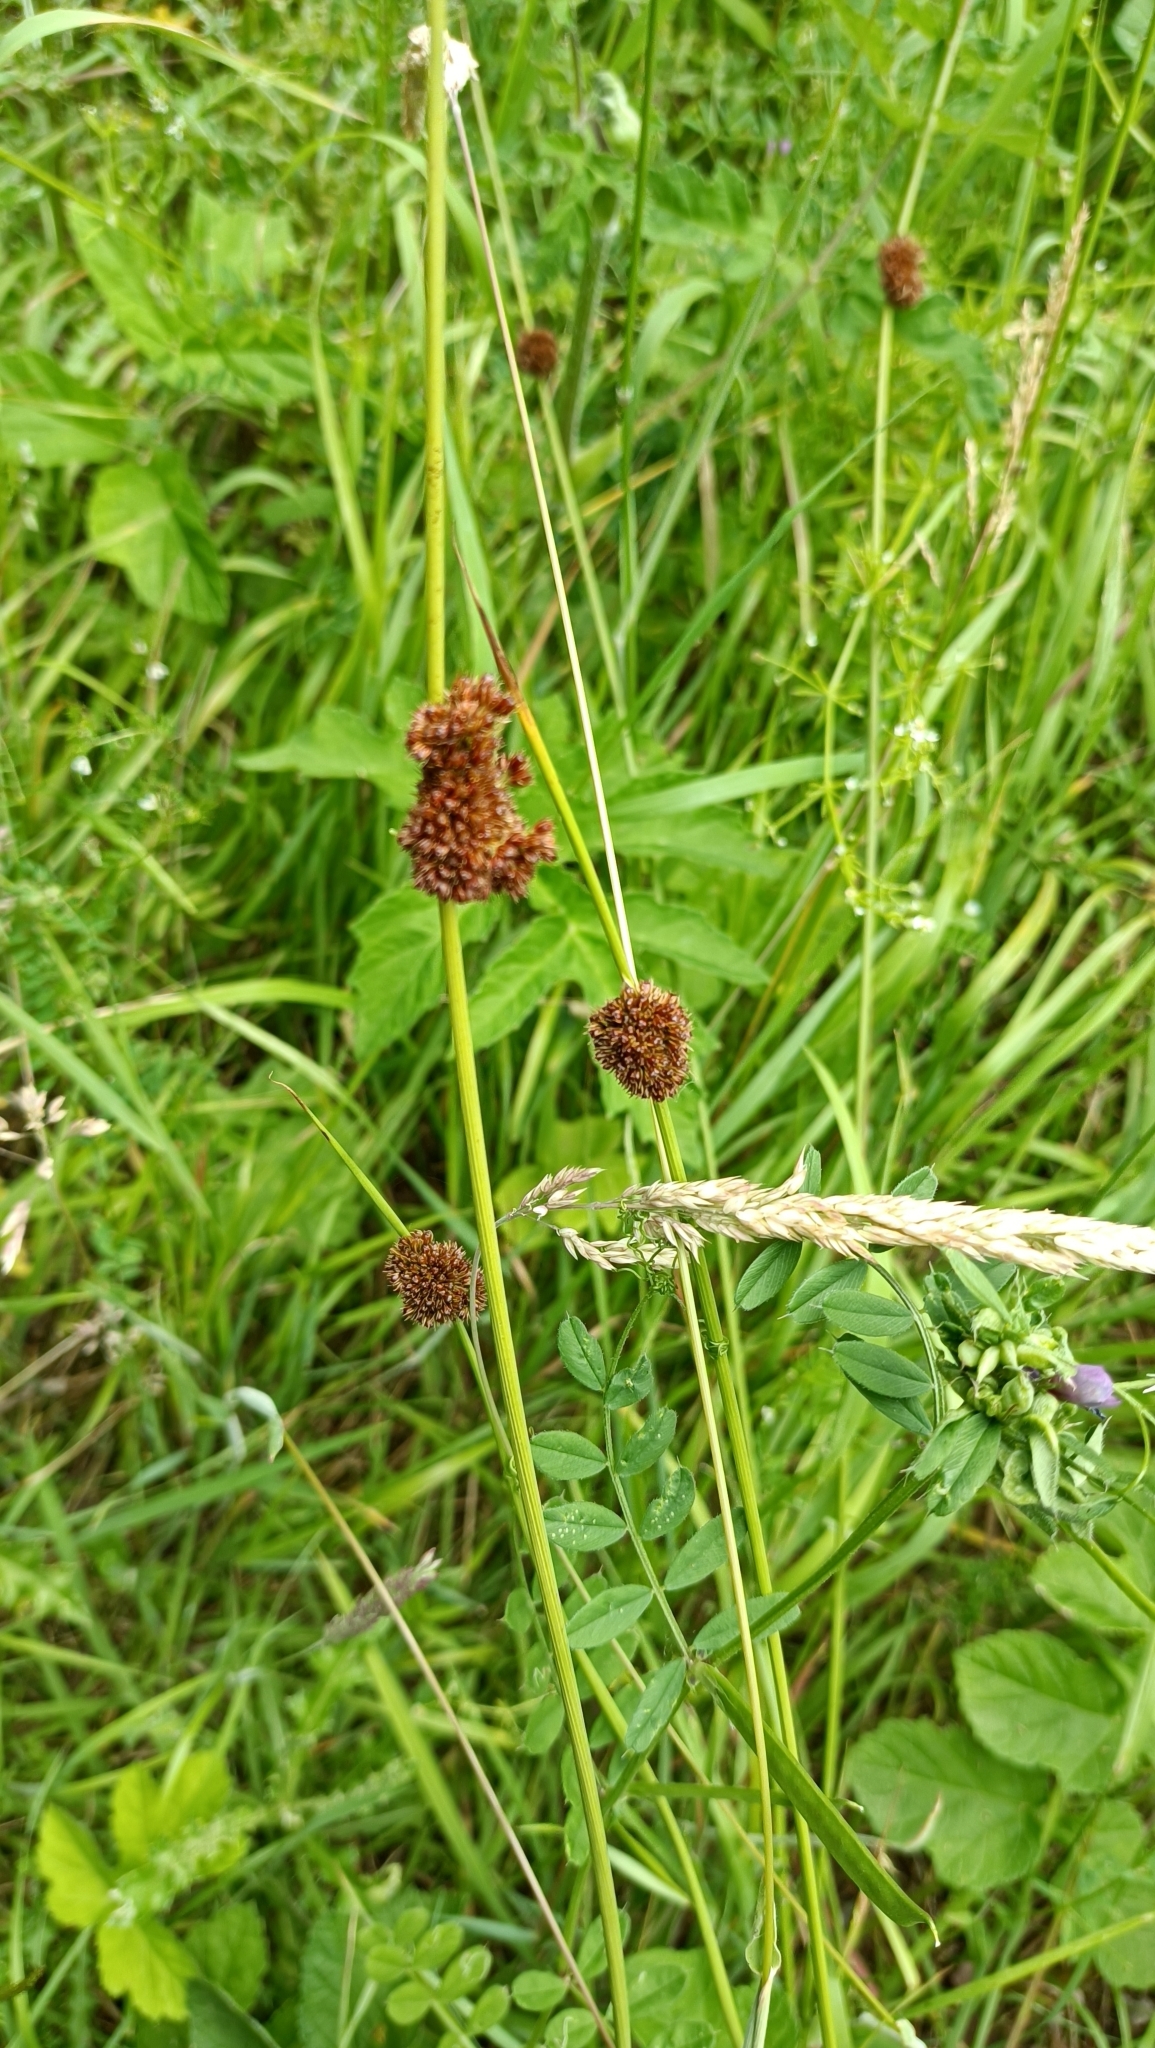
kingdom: Plantae
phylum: Tracheophyta
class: Liliopsida
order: Poales
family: Juncaceae
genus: Juncus
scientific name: Juncus conglomeratus
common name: Compact rush
